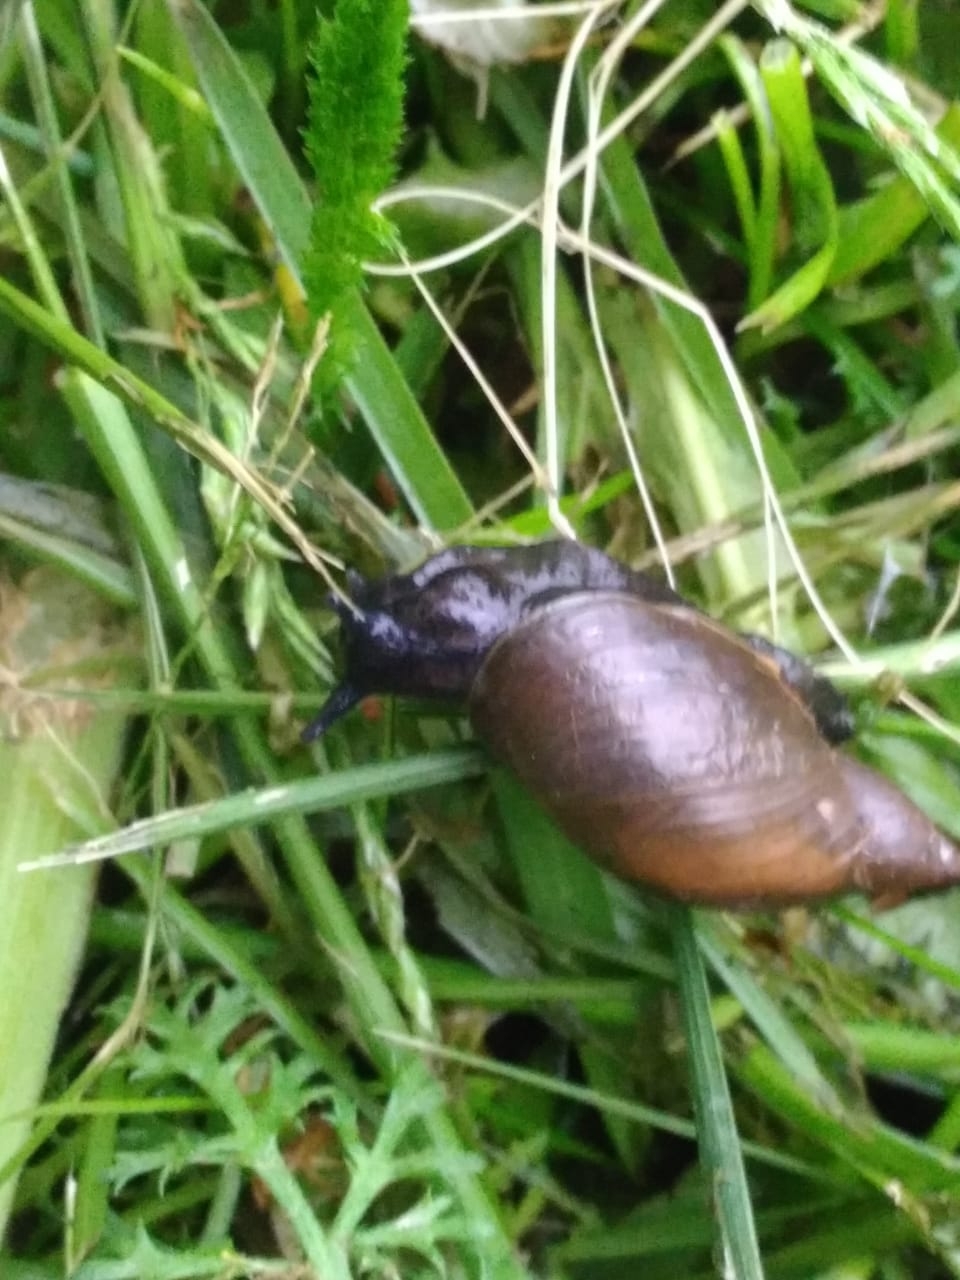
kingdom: Animalia
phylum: Mollusca
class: Gastropoda
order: Stylommatophora
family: Succineidae
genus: Succinea
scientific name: Succinea putris
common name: European ambersnail
